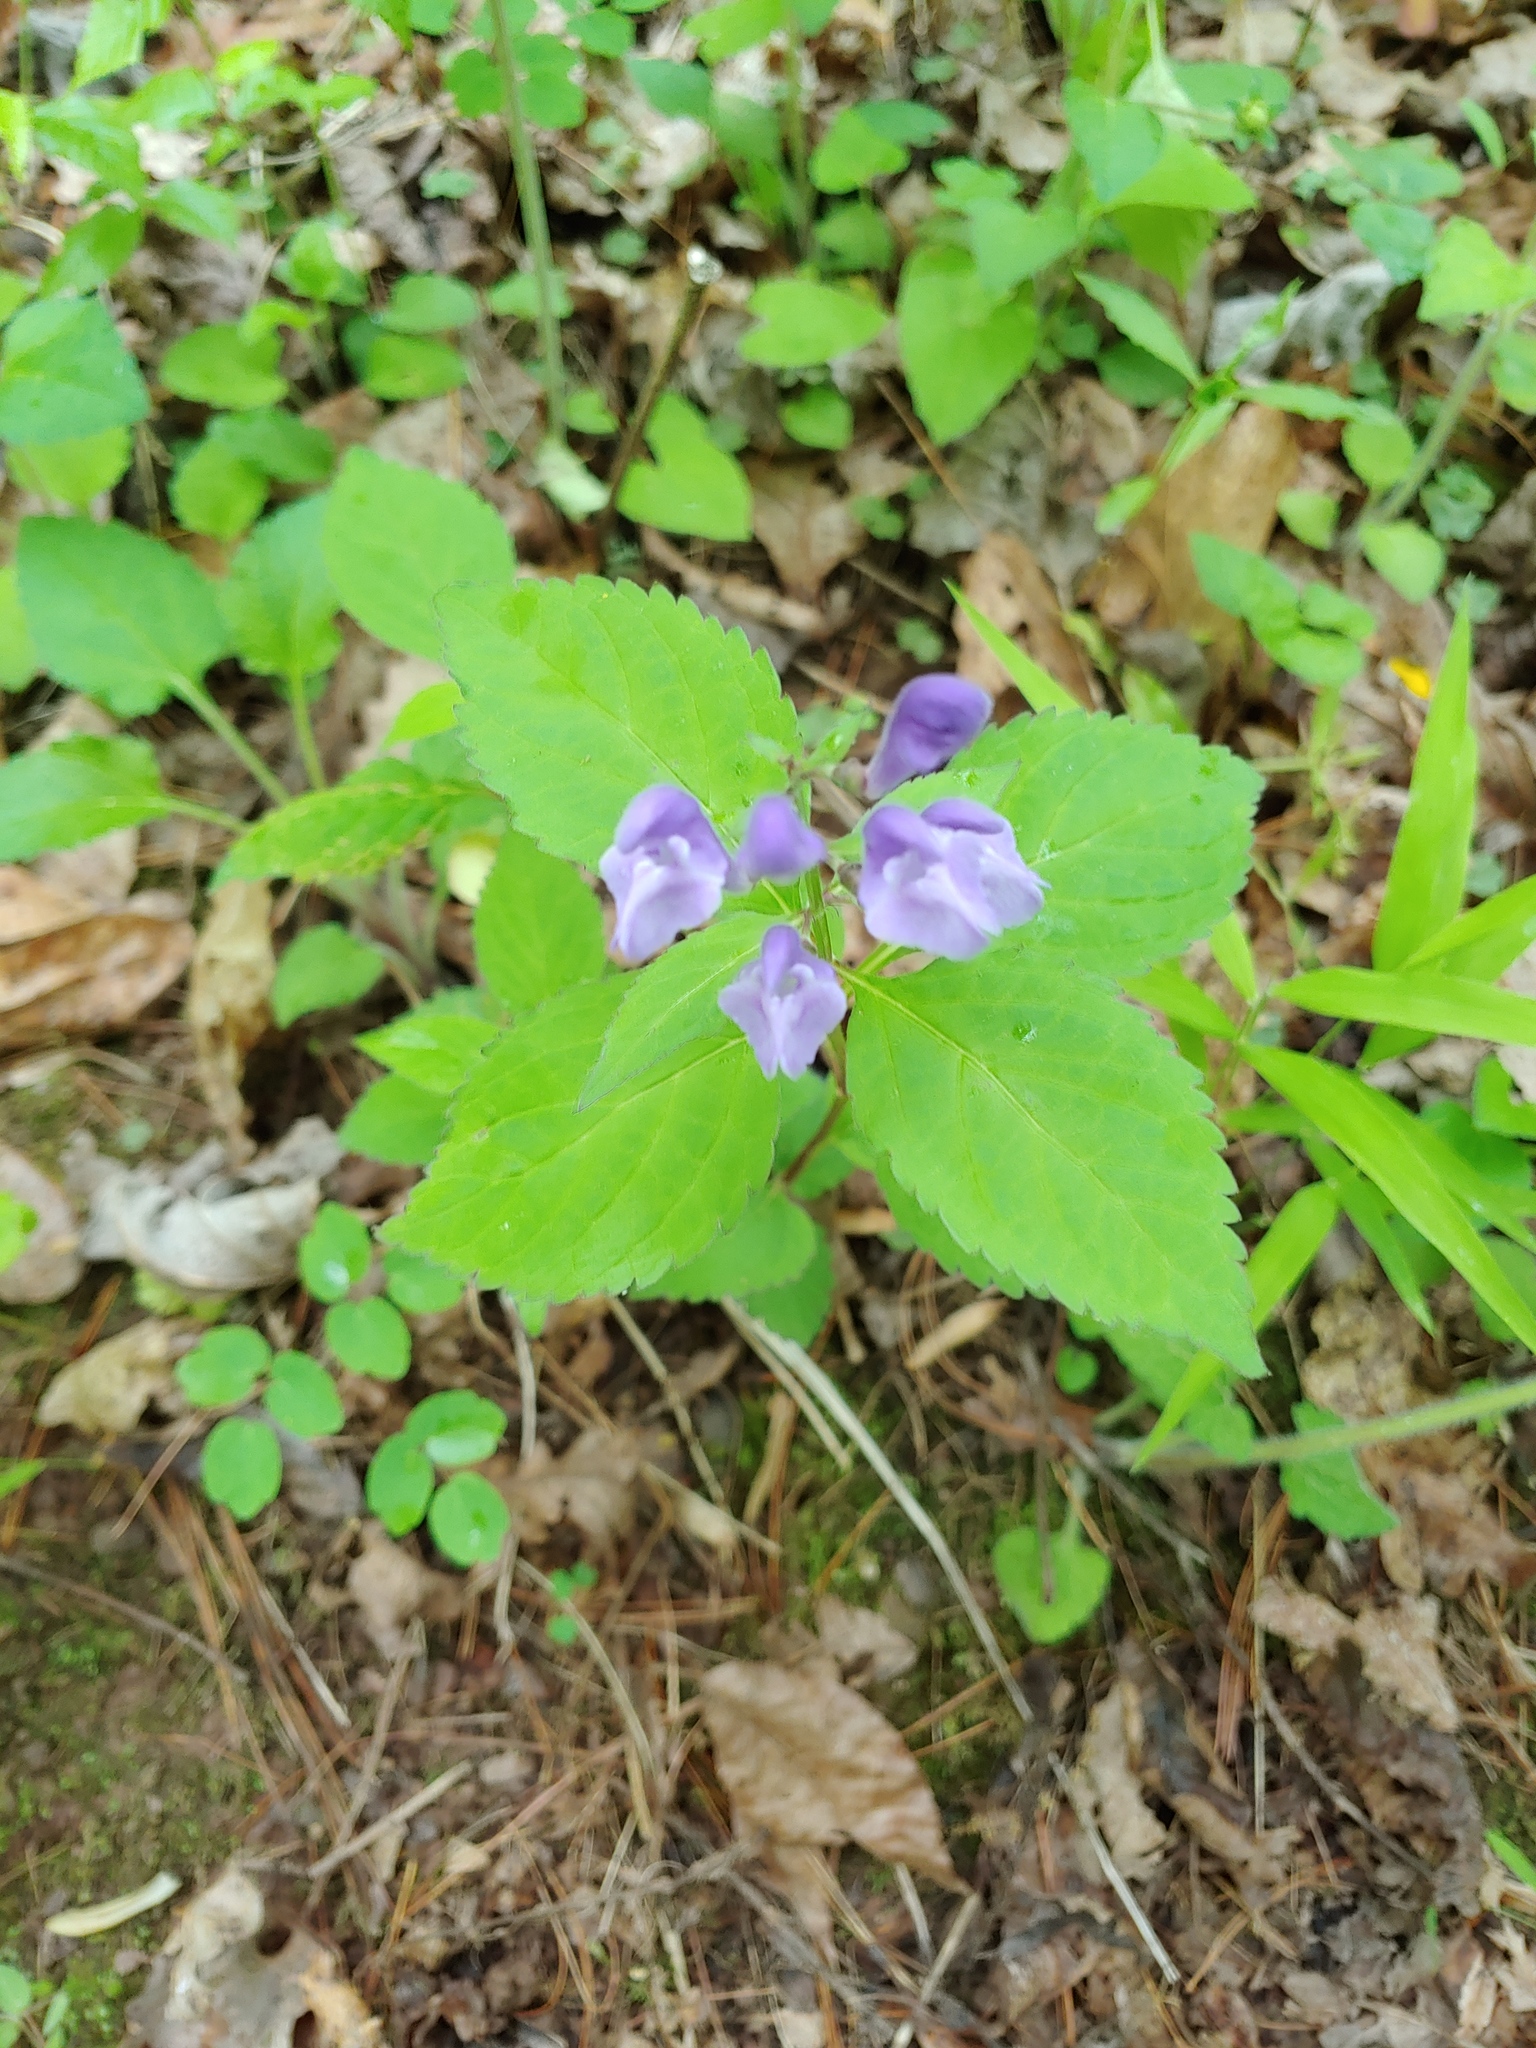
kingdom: Plantae
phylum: Tracheophyta
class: Magnoliopsida
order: Lamiales
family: Lamiaceae
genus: Scutellaria
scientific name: Scutellaria serrata
